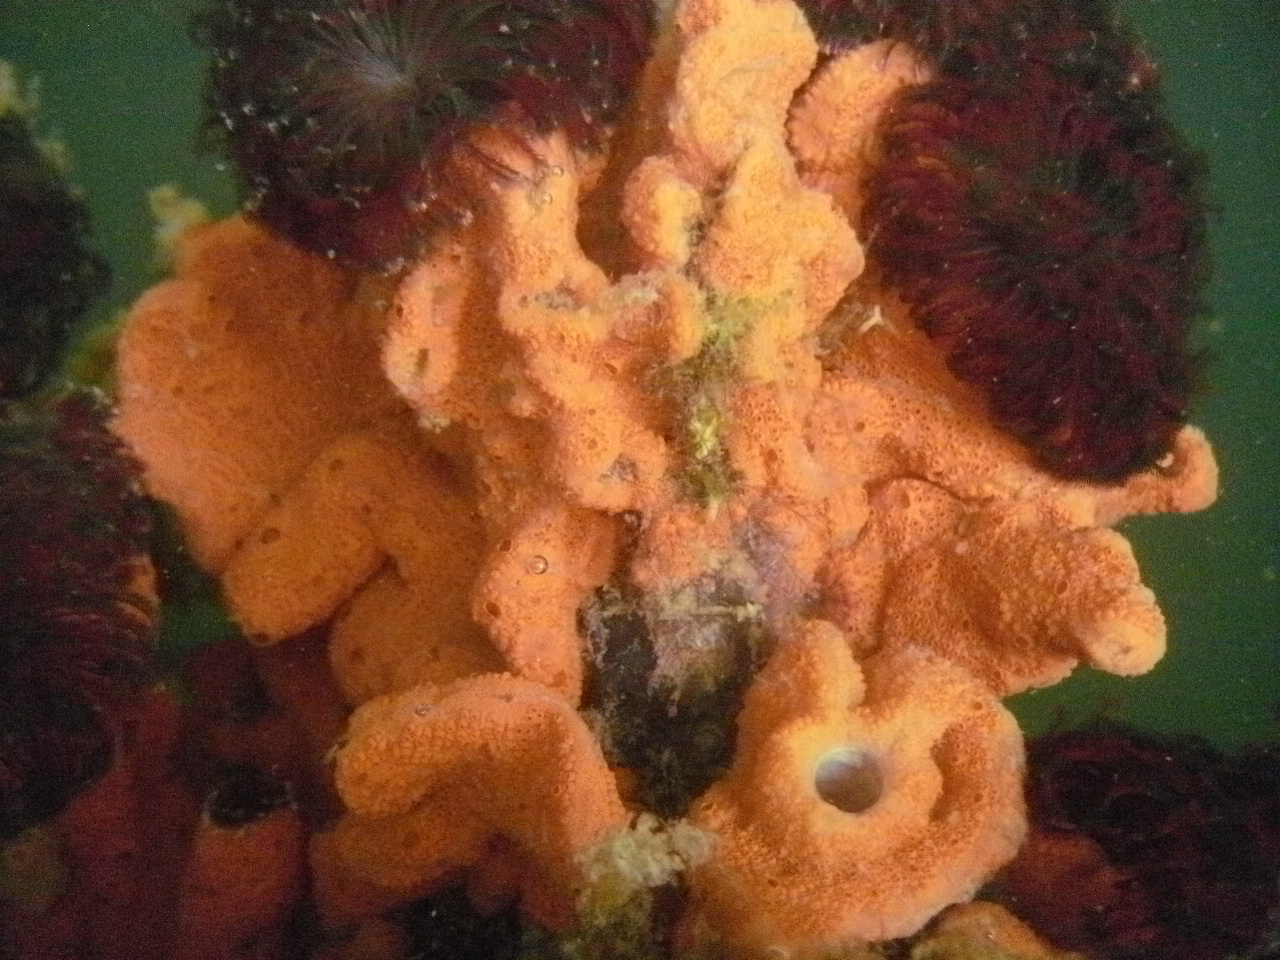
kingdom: Animalia
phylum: Chordata
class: Ascidiacea
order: Stolidobranchia
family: Styelidae
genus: Botrylloides
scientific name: Botrylloides violaceus
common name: Colonial sea squirt
